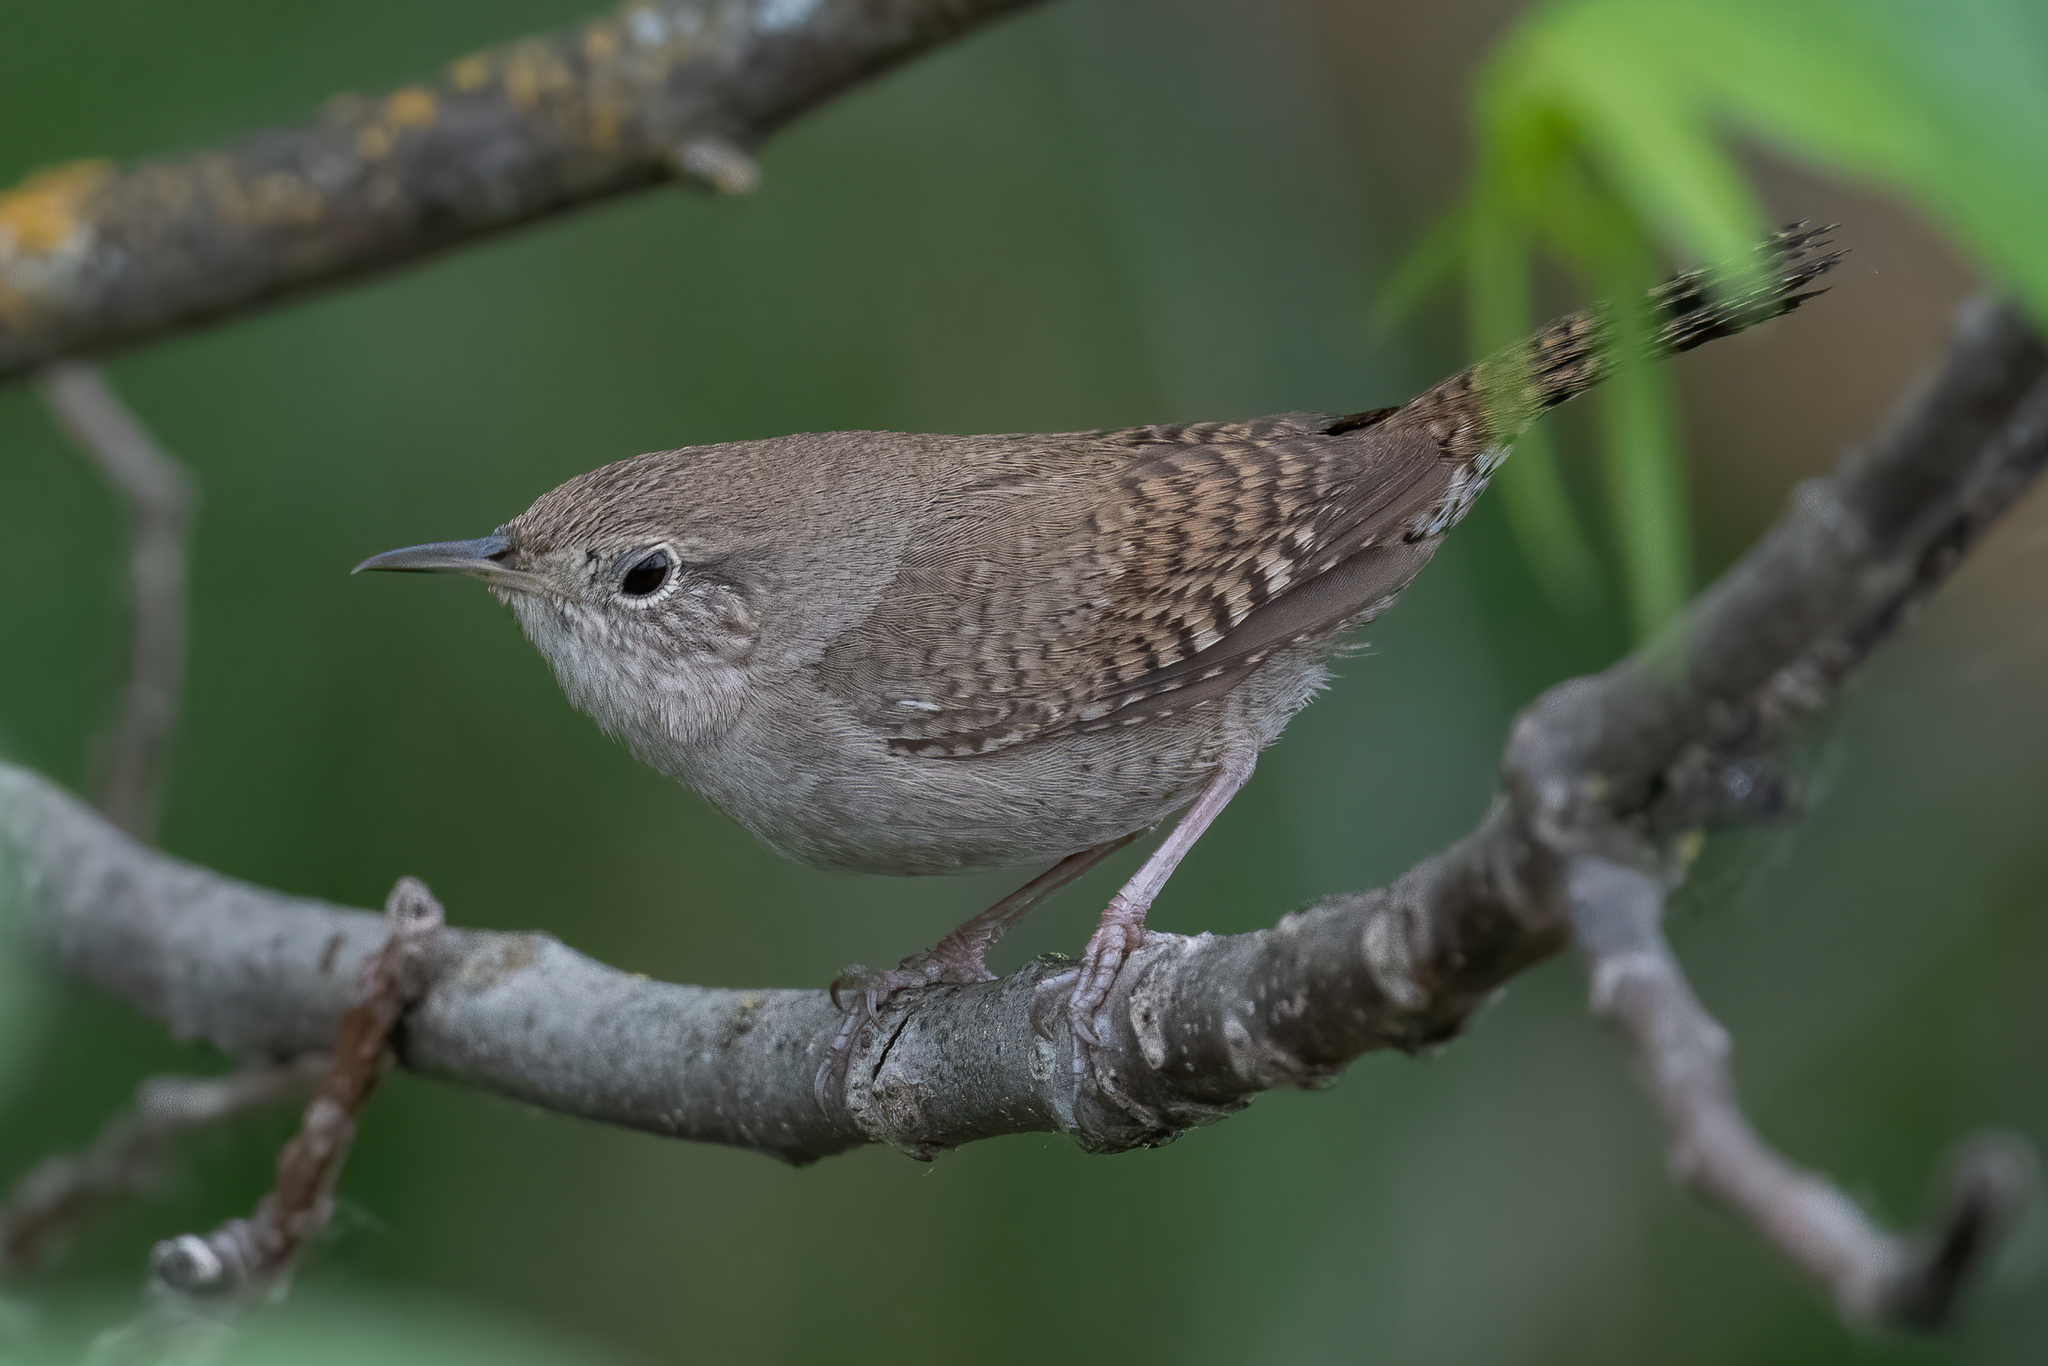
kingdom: Animalia
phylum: Chordata
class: Aves
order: Passeriformes
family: Troglodytidae
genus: Troglodytes
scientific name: Troglodytes aedon
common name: House wren
